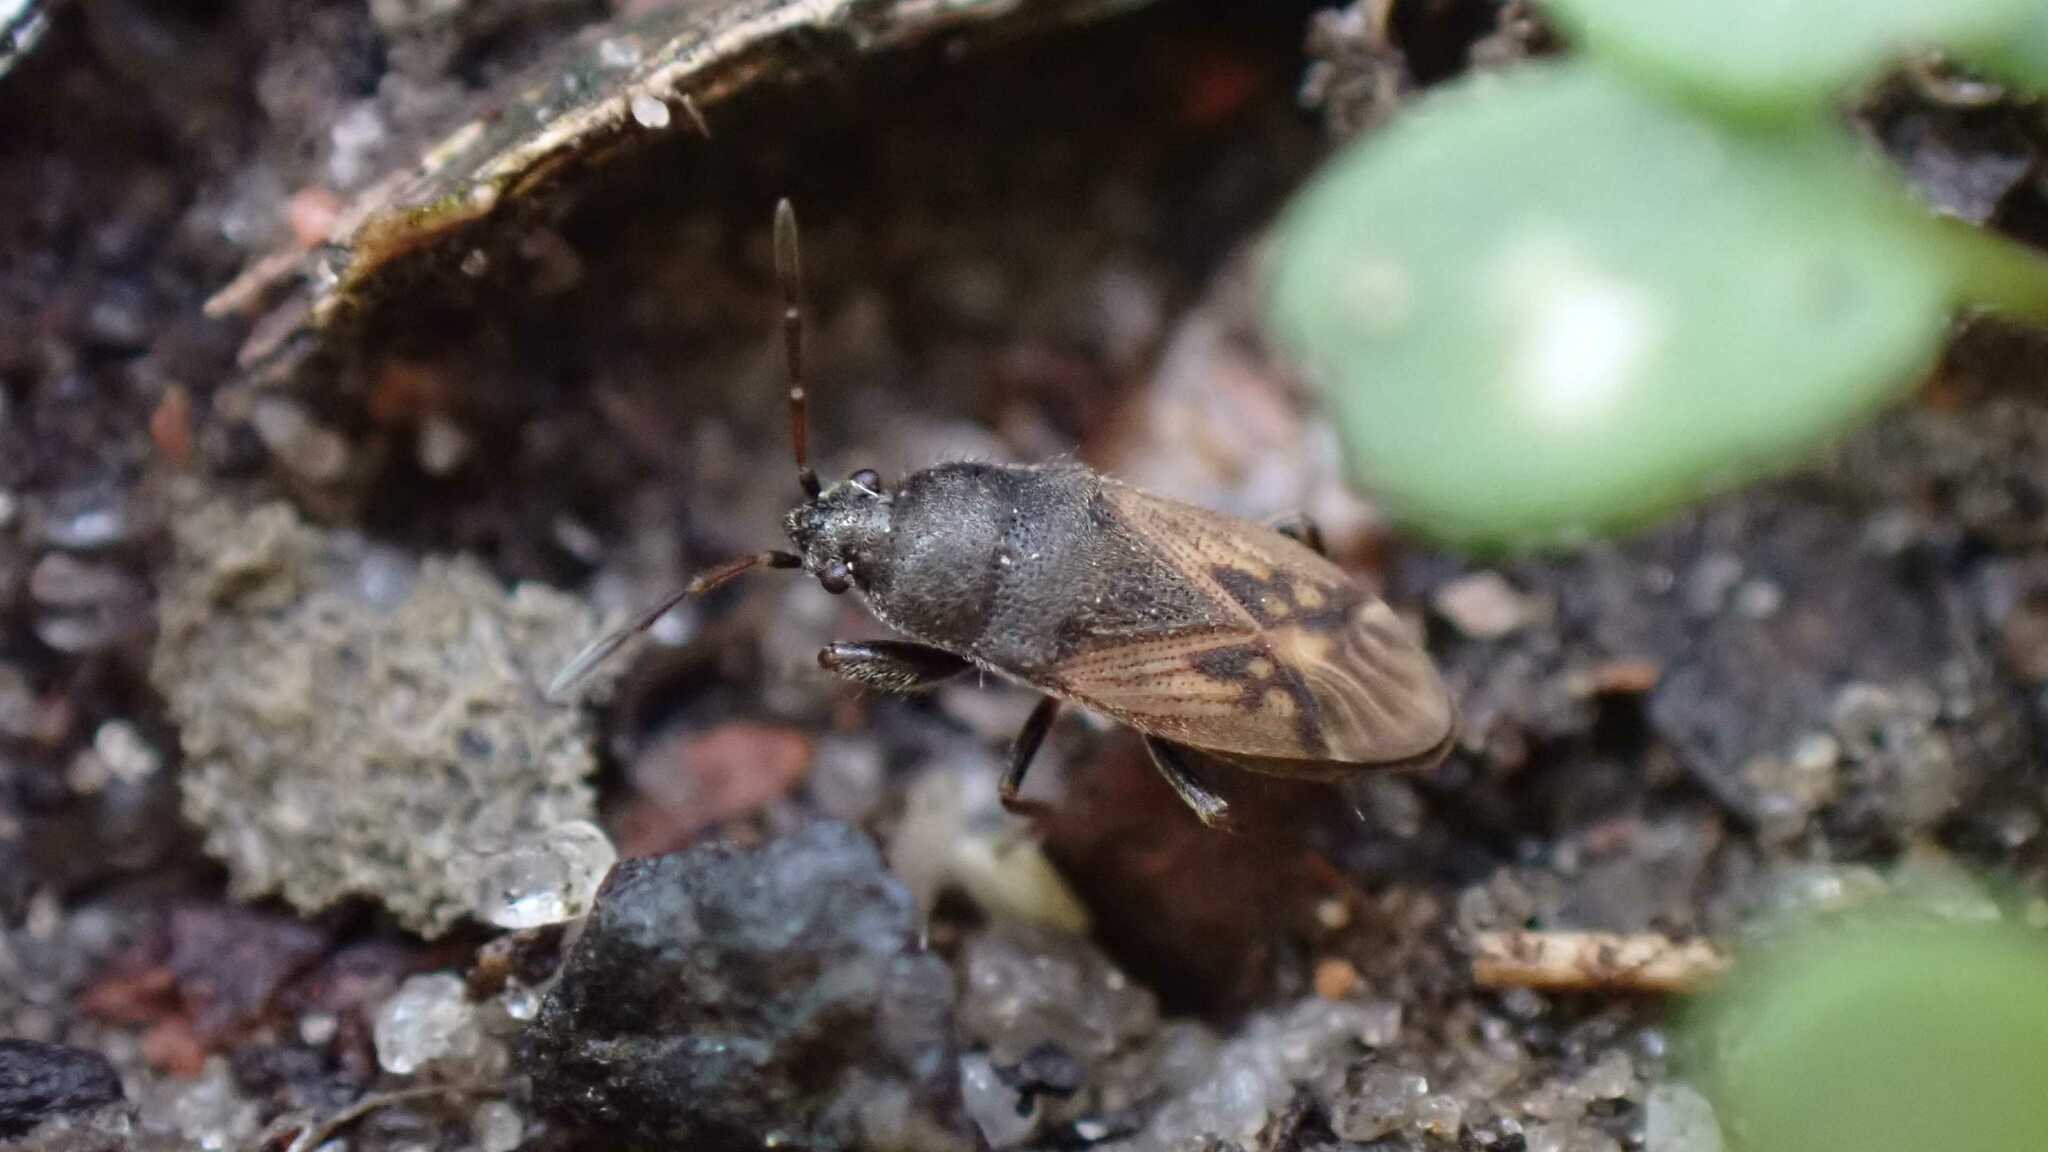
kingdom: Animalia
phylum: Arthropoda
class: Insecta
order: Hemiptera
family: Rhyparochromidae
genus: Megalonotus
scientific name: Megalonotus sabulicola
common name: Seed bug
